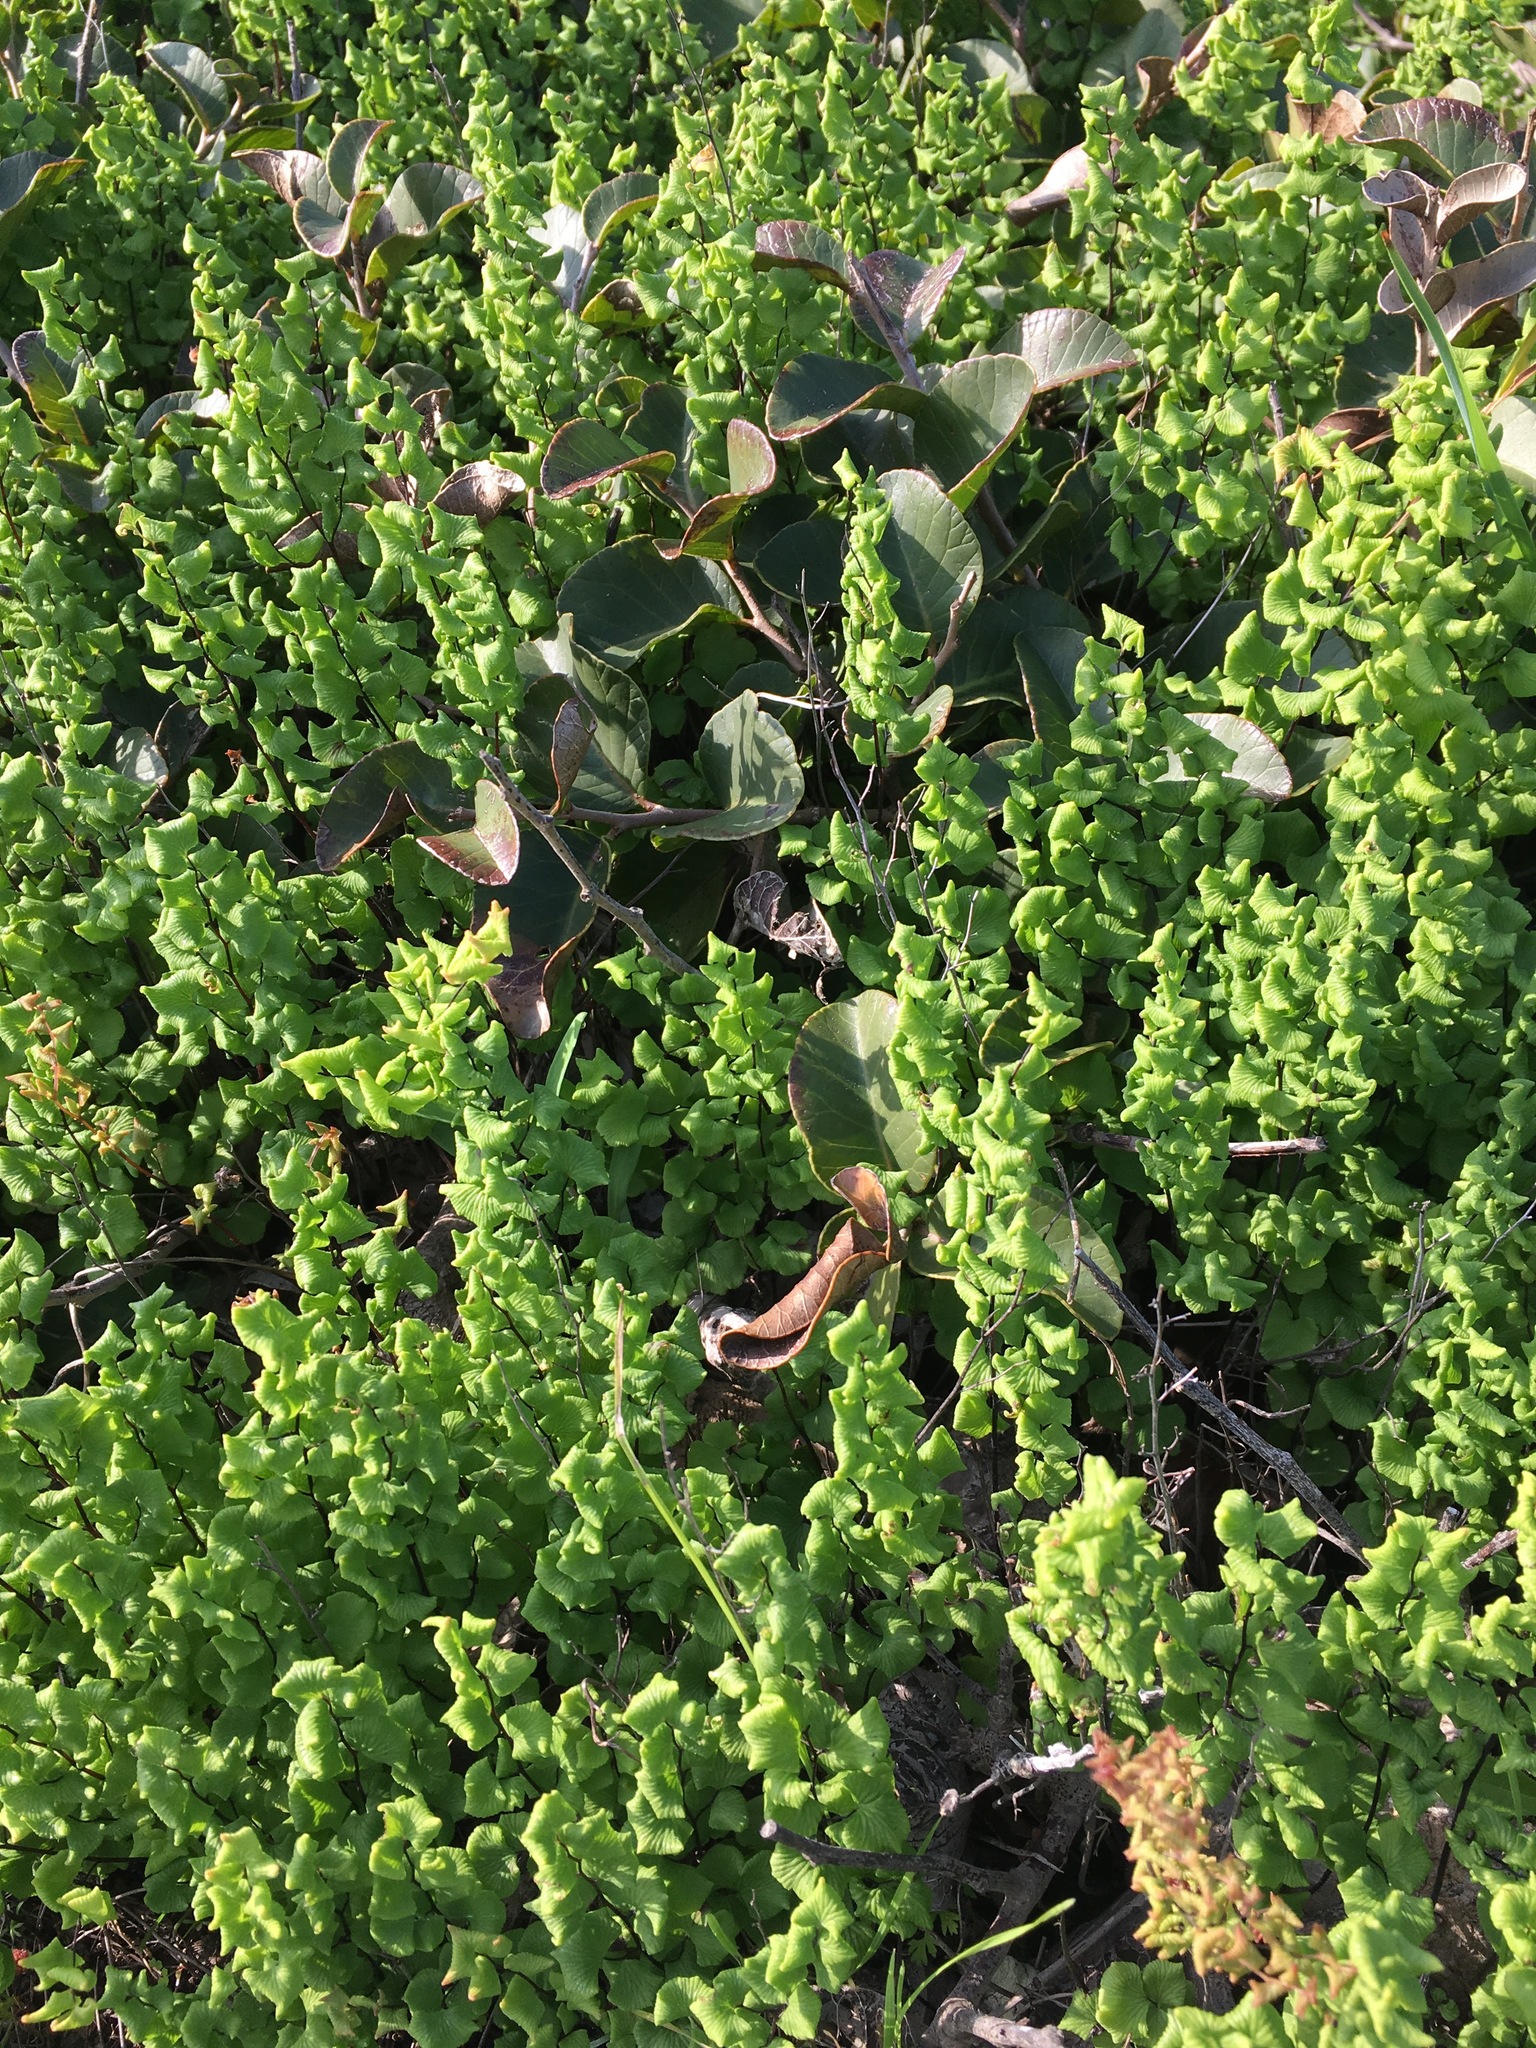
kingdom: Plantae
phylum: Tracheophyta
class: Magnoliopsida
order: Sapindales
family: Anacardiaceae
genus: Lithraea
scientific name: Lithraea caustica
